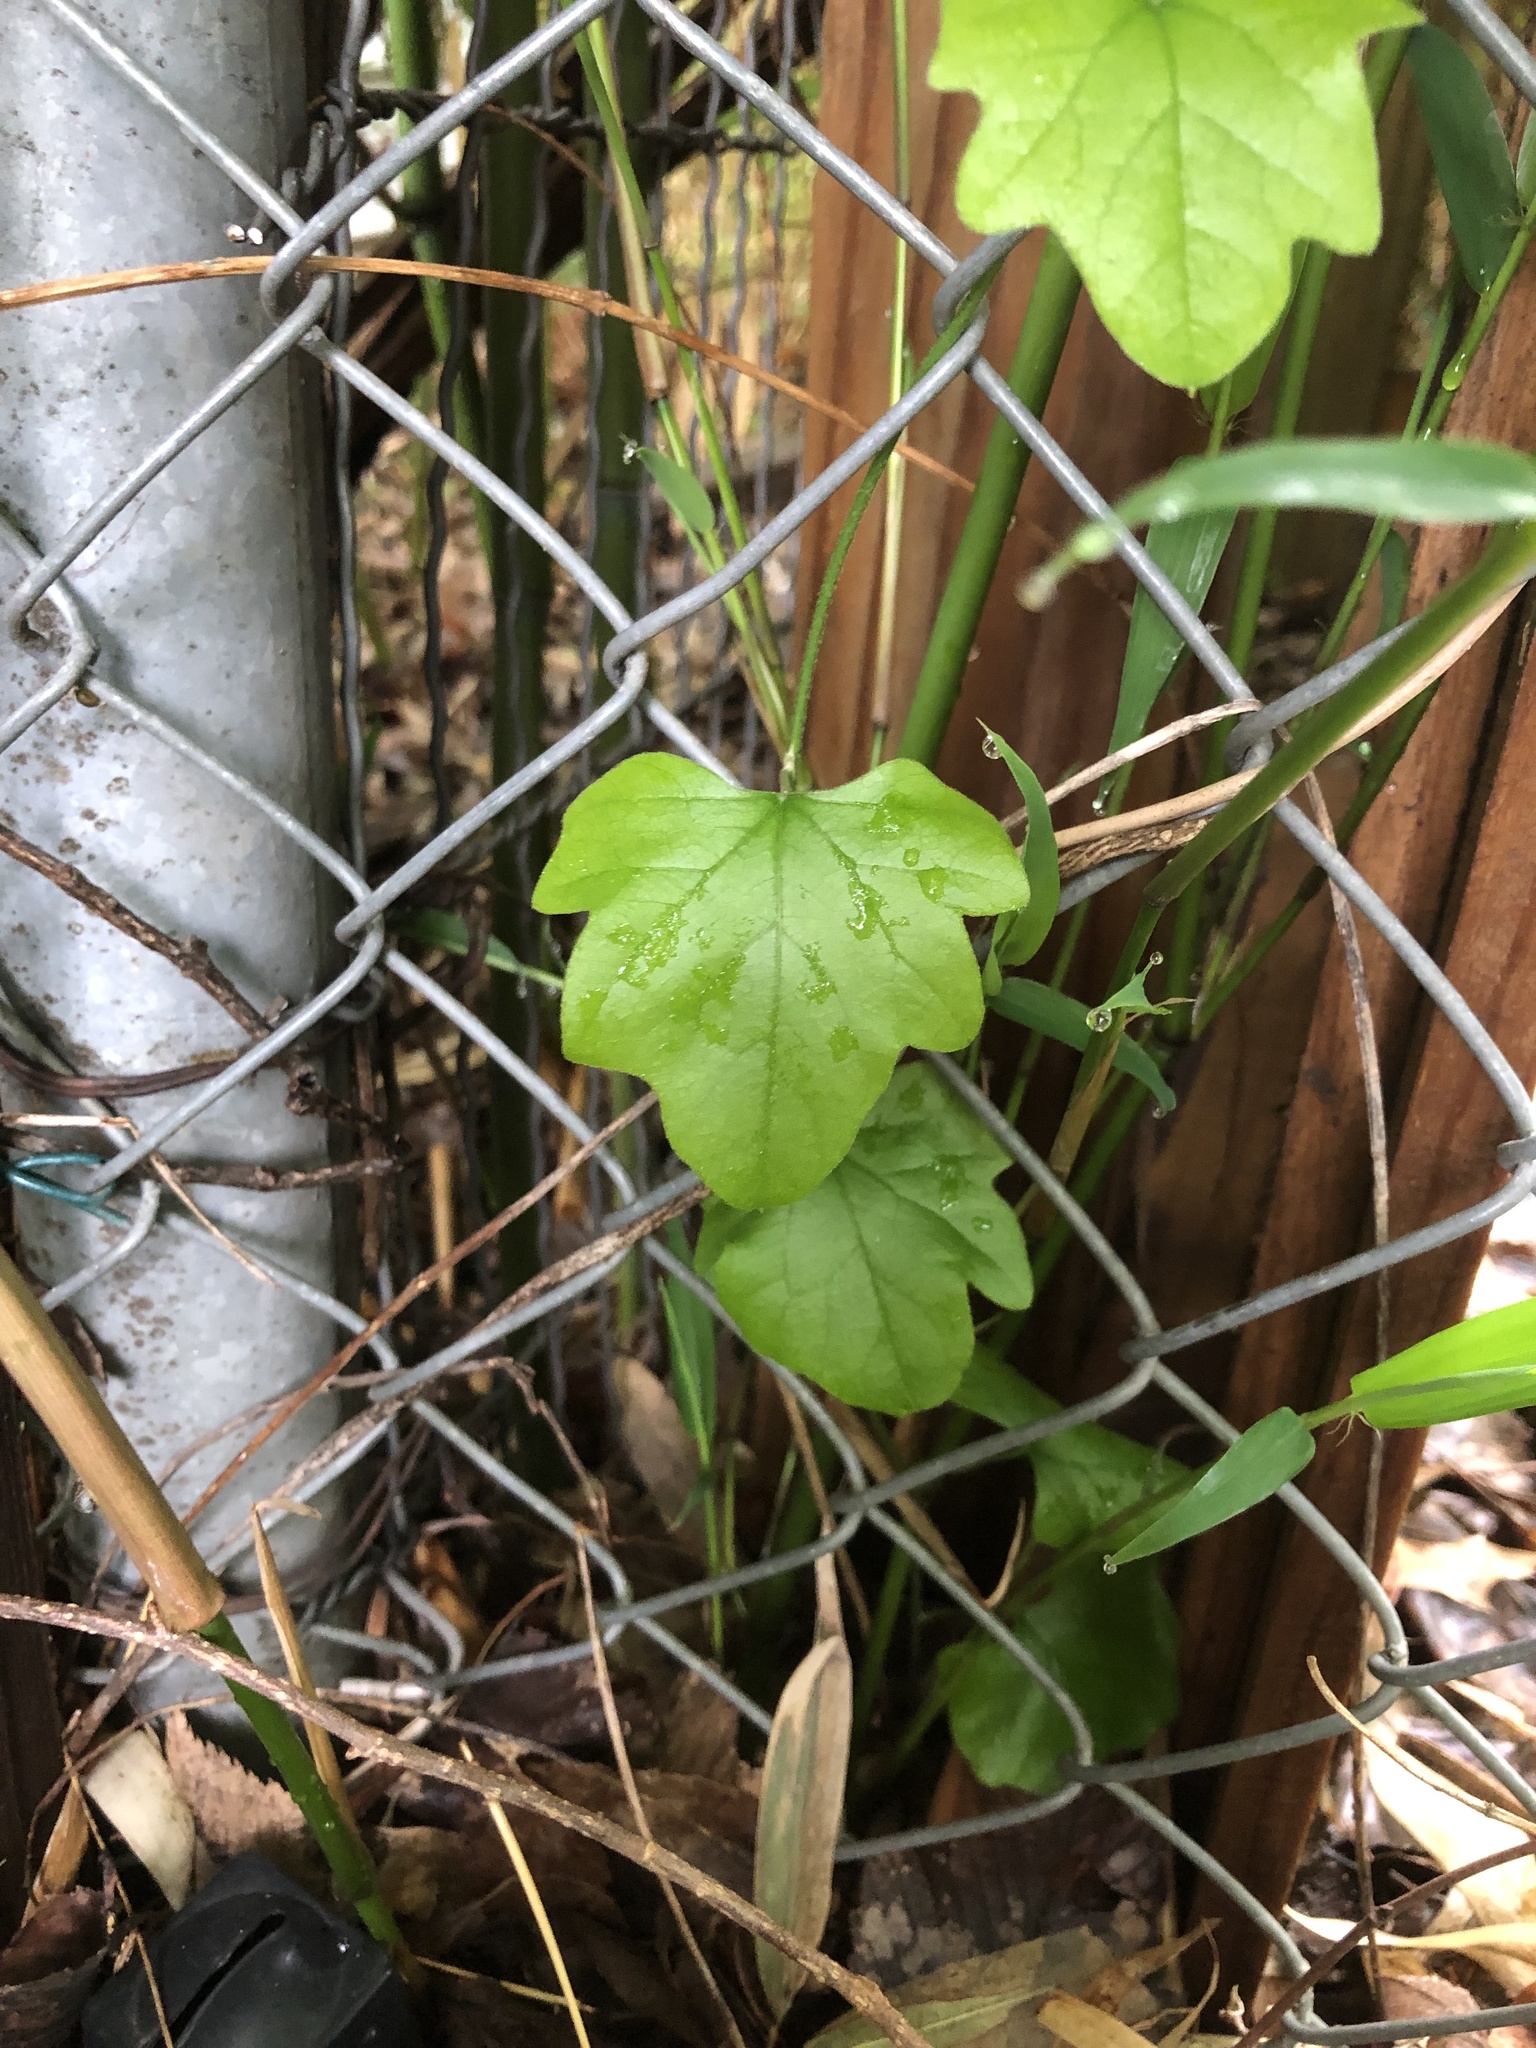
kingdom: Plantae
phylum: Tracheophyta
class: Magnoliopsida
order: Ranunculales
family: Menispermaceae
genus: Cocculus
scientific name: Cocculus carolinus
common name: Carolina moonseed
